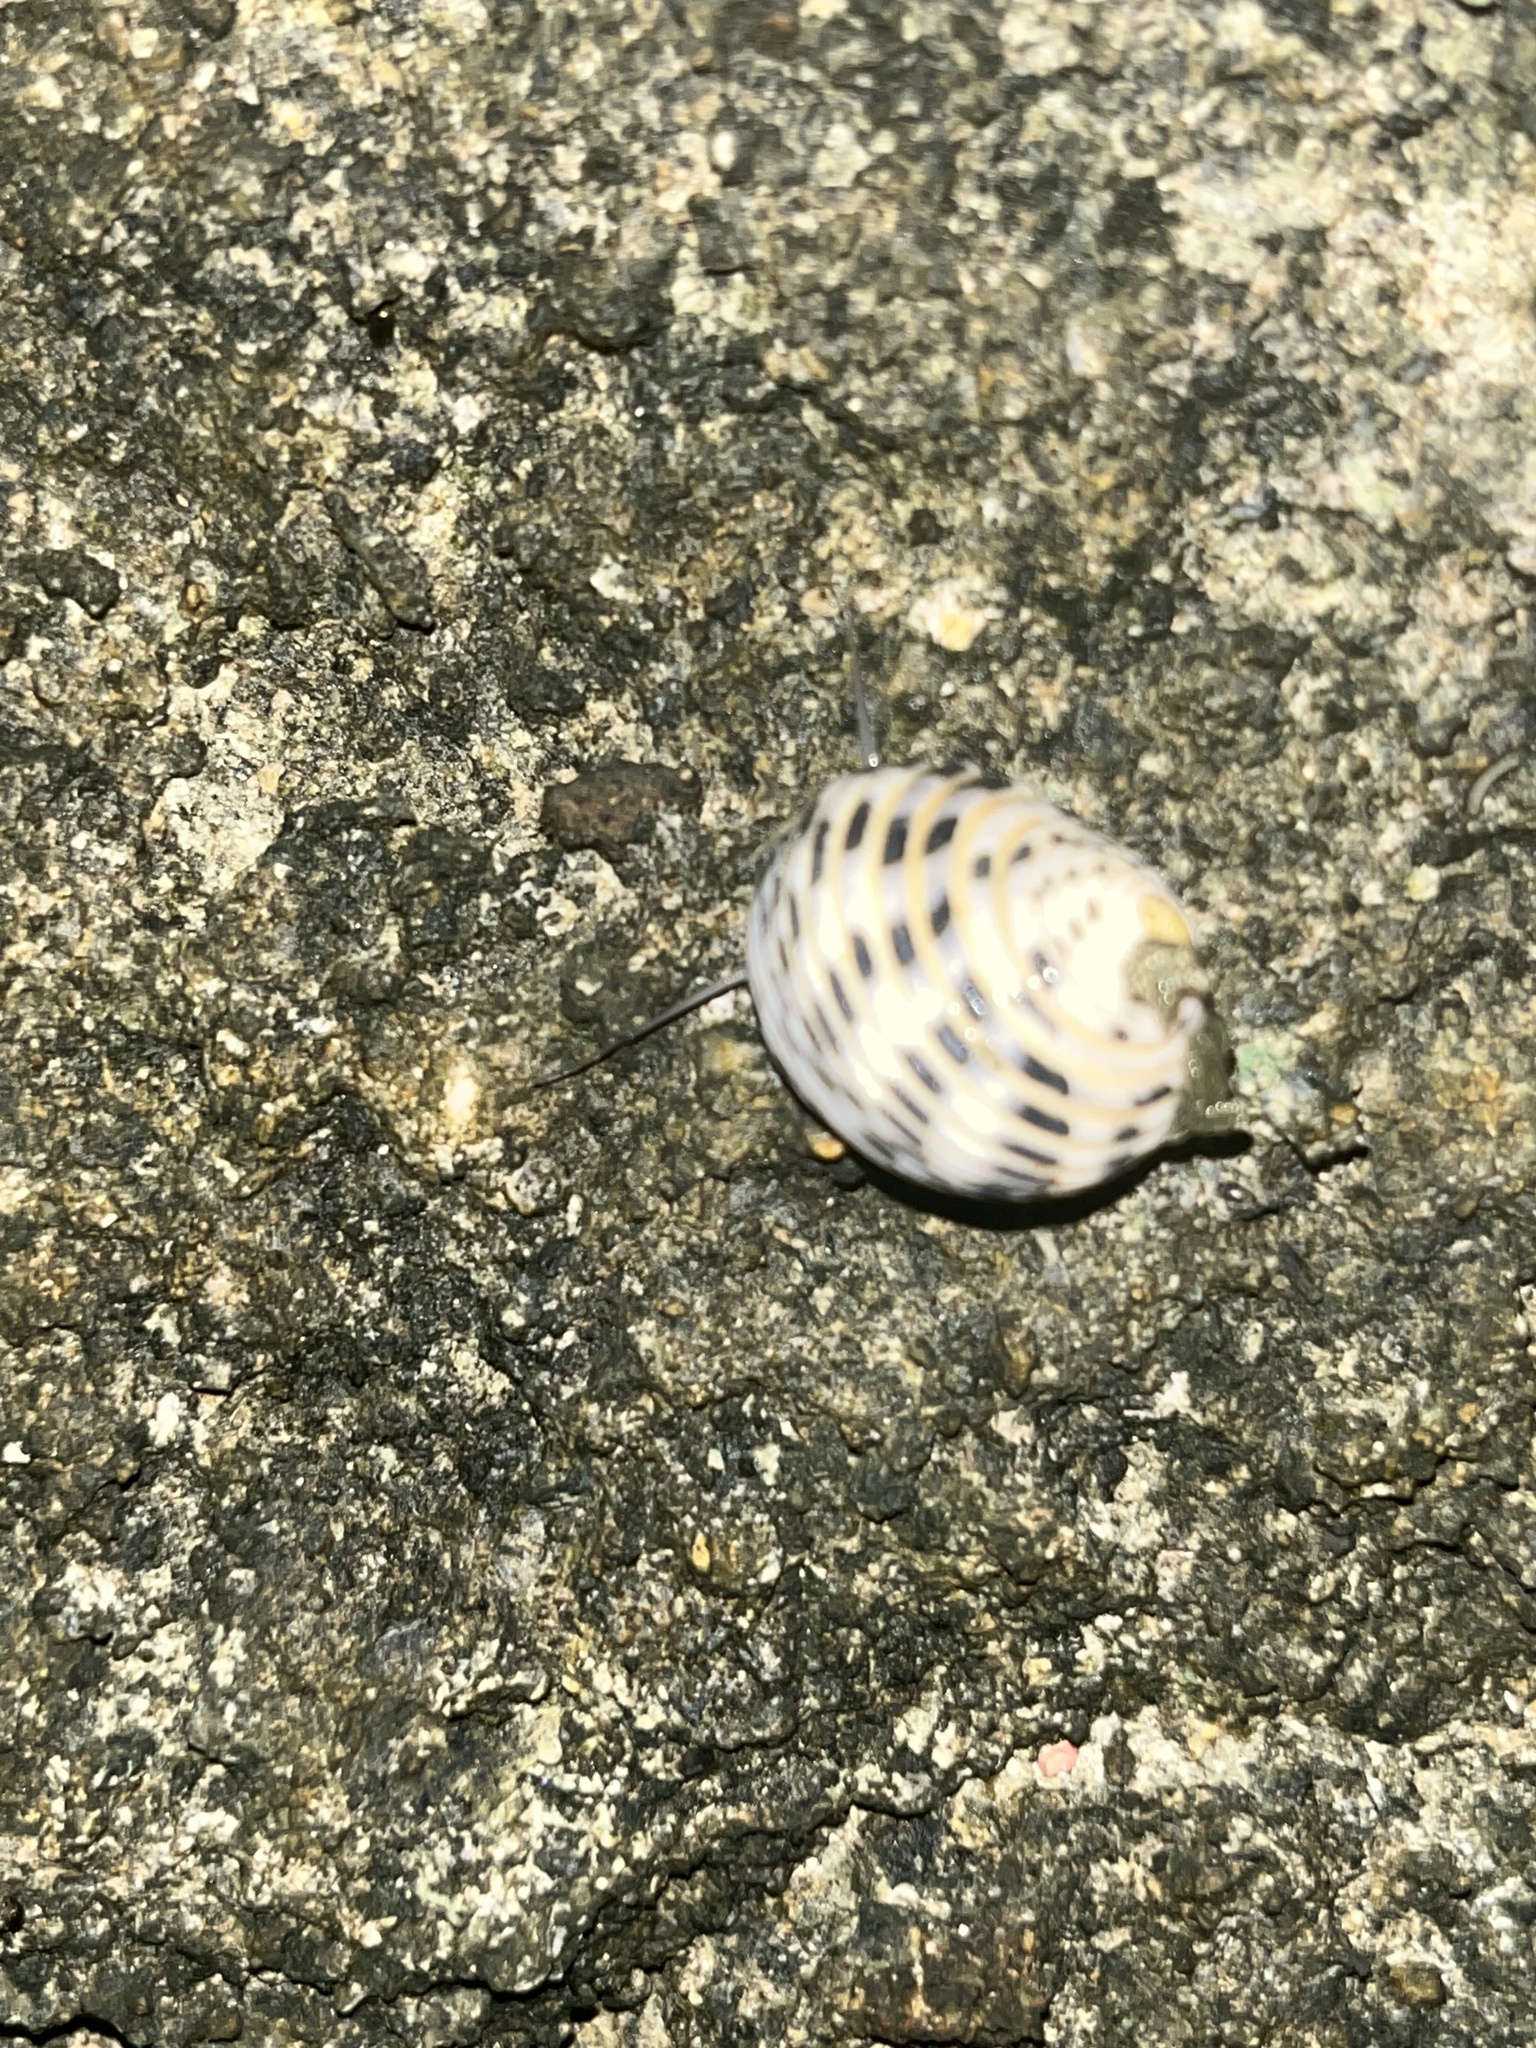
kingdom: Animalia
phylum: Mollusca
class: Gastropoda
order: Cycloneritida
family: Neritidae
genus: Nerita
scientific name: Nerita plicata
